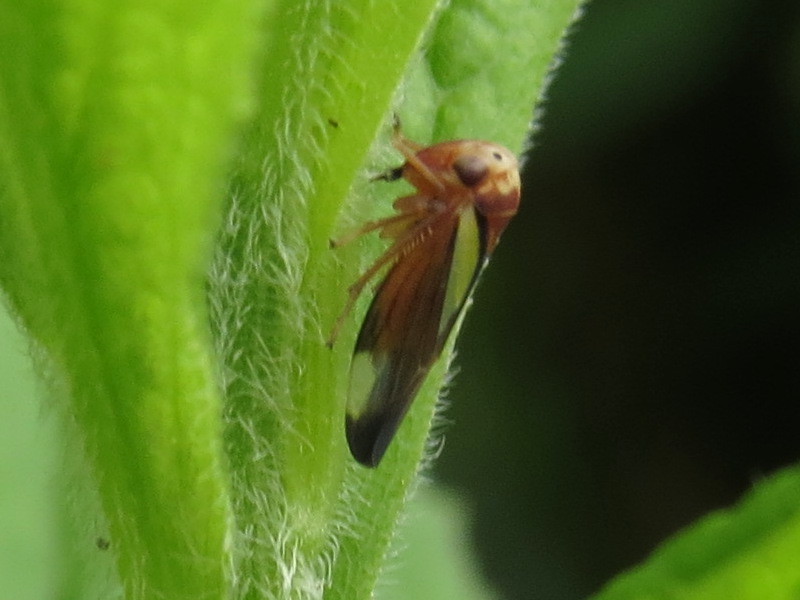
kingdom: Animalia
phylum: Arthropoda
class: Insecta
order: Hemiptera
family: Cicadellidae
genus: Balcanocerus
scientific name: Balcanocerus provancheri
